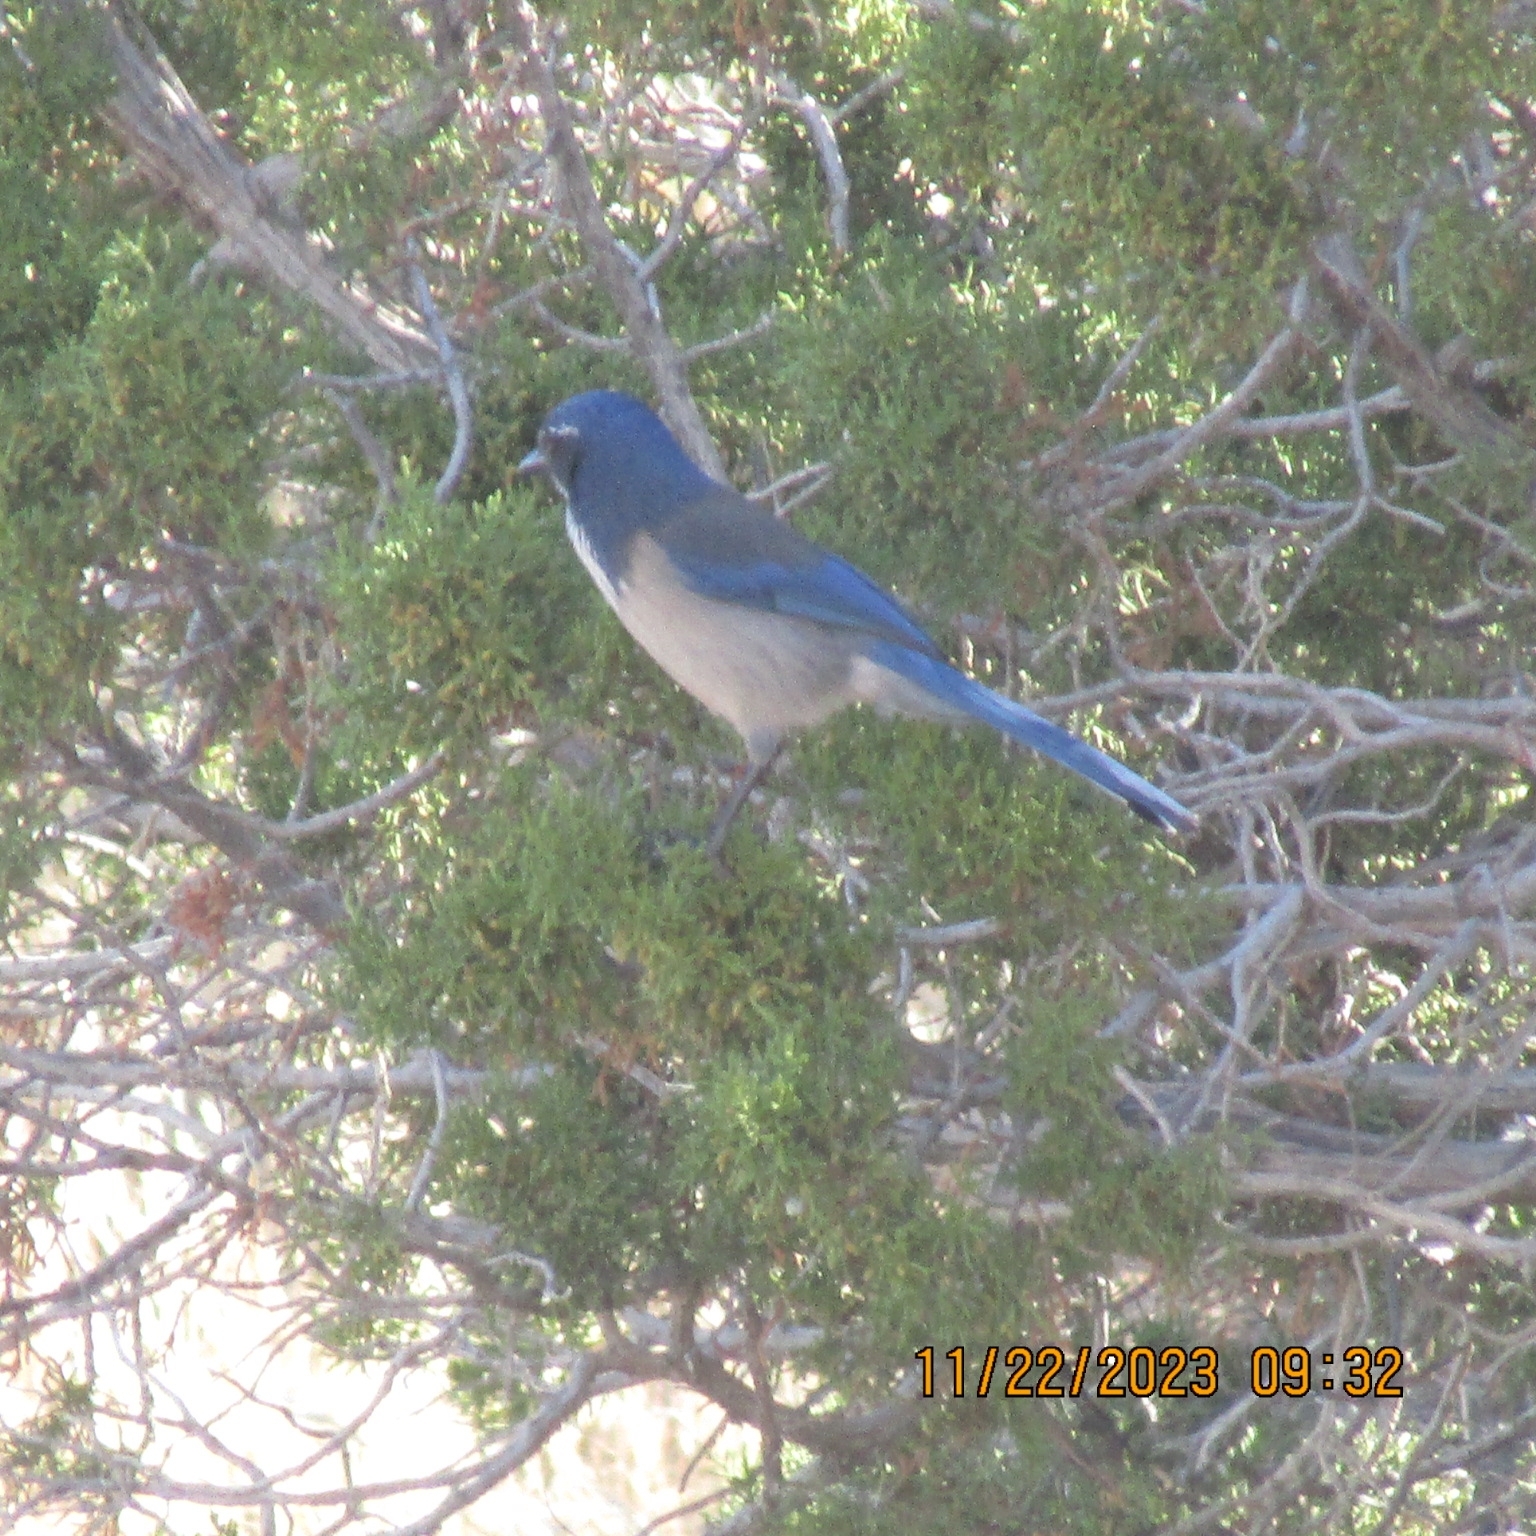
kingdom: Animalia
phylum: Chordata
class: Aves
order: Passeriformes
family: Corvidae
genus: Aphelocoma
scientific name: Aphelocoma californica
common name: California scrub-jay
